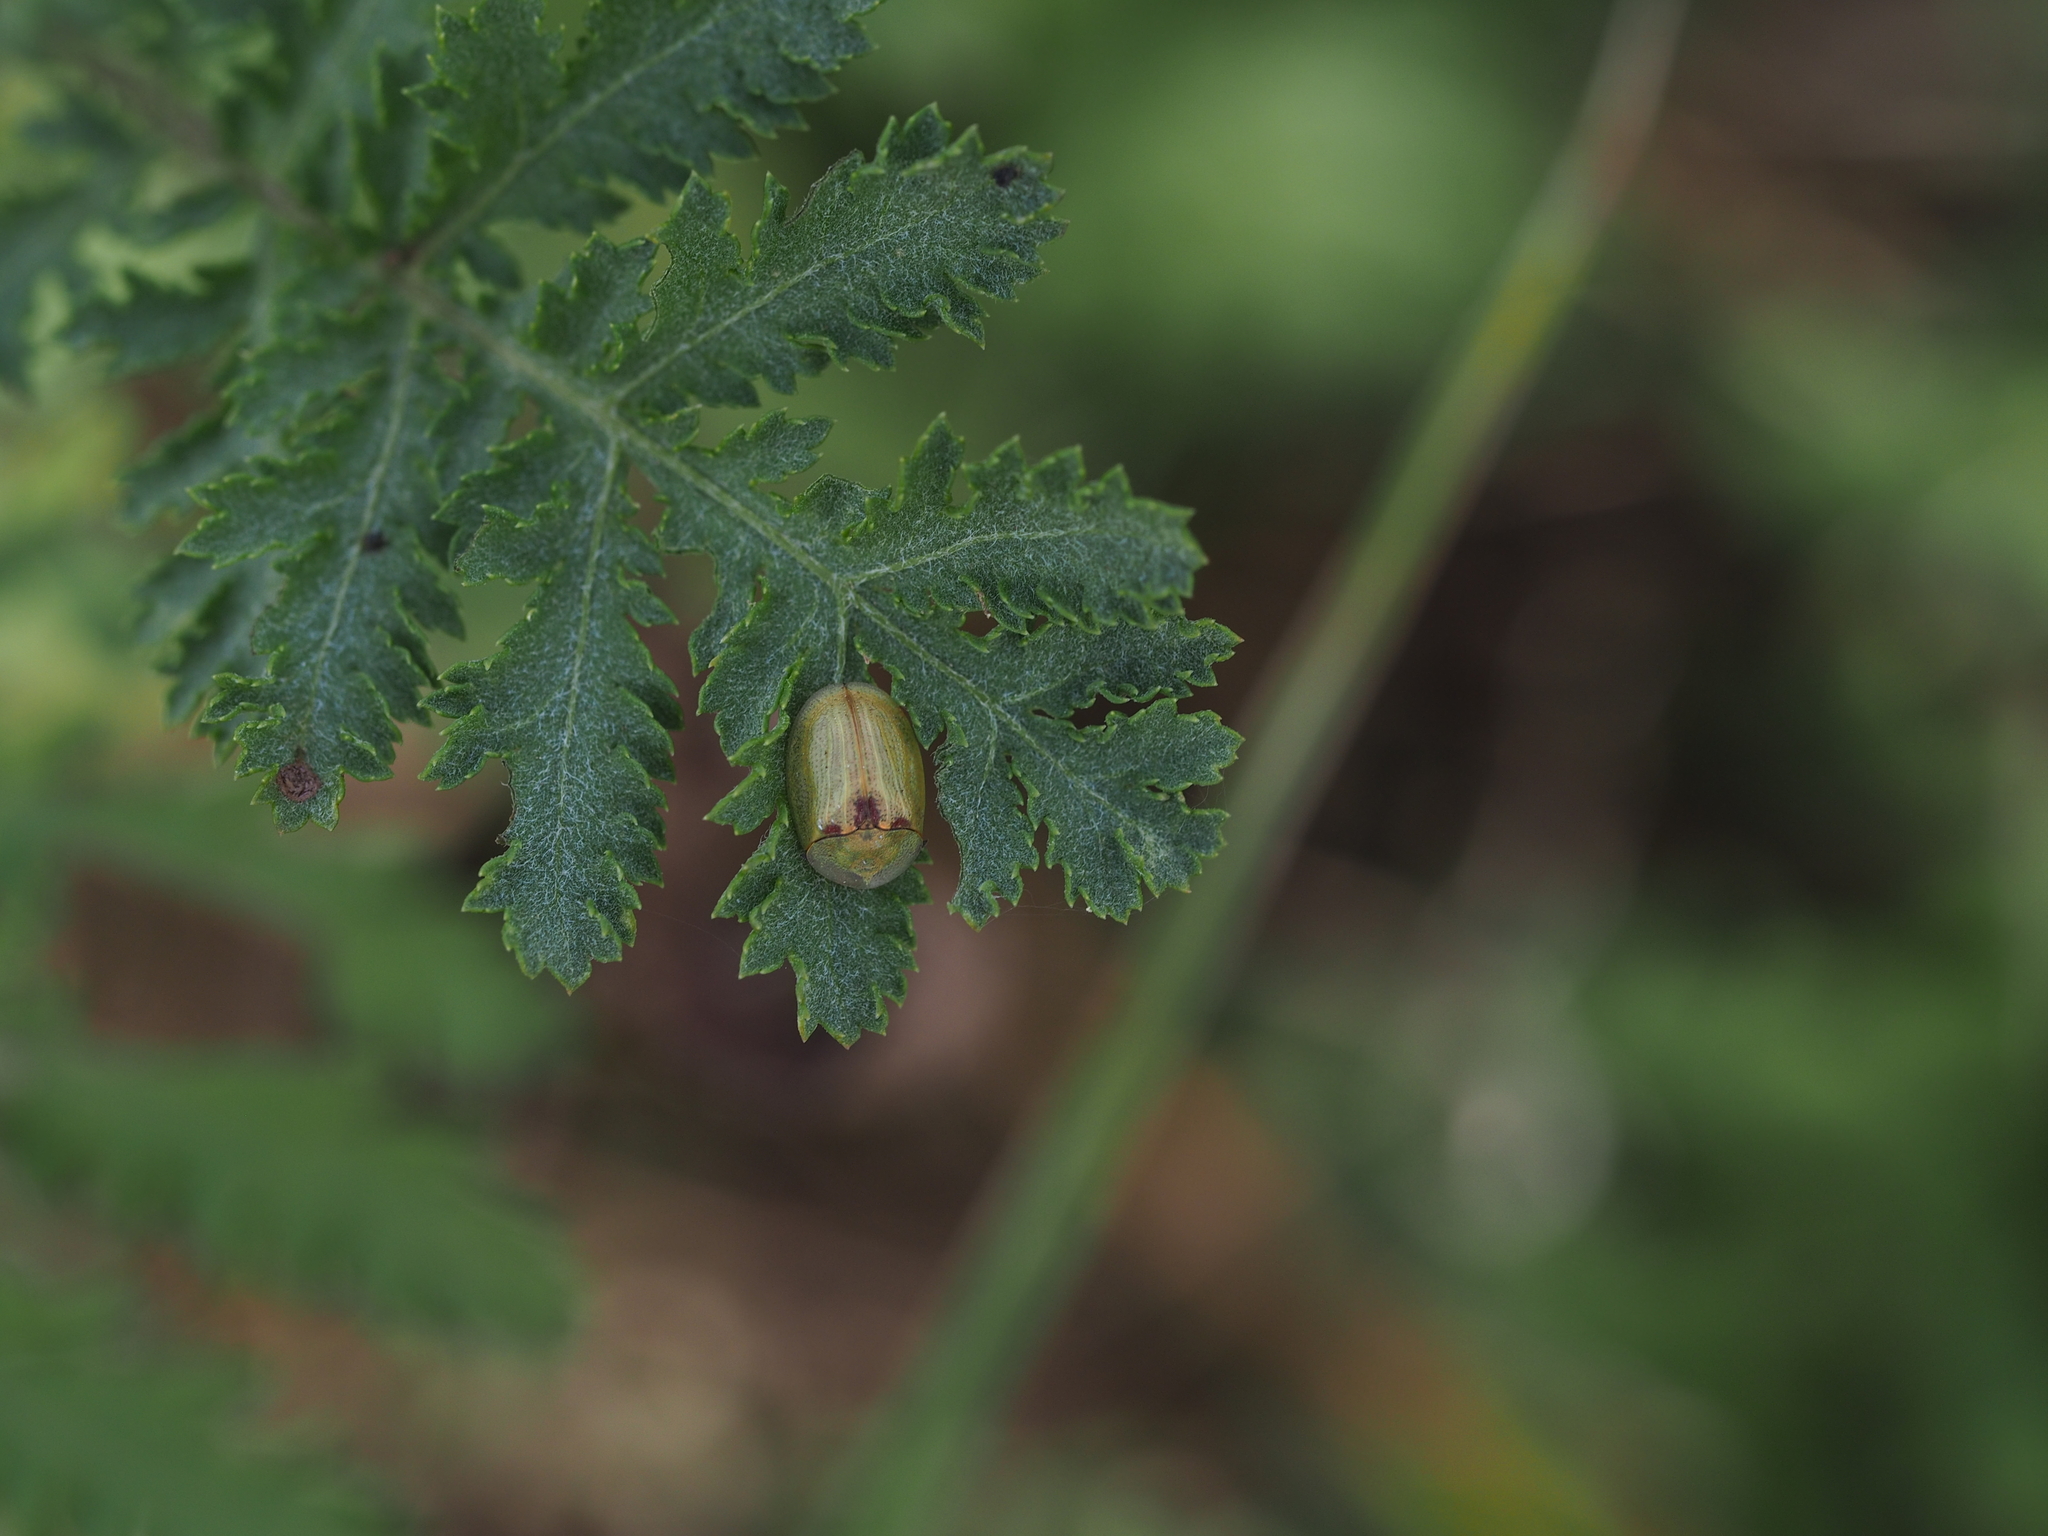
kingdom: Animalia
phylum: Arthropoda
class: Insecta
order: Coleoptera
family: Chrysomelidae
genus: Cassida
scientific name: Cassida stigmatica
